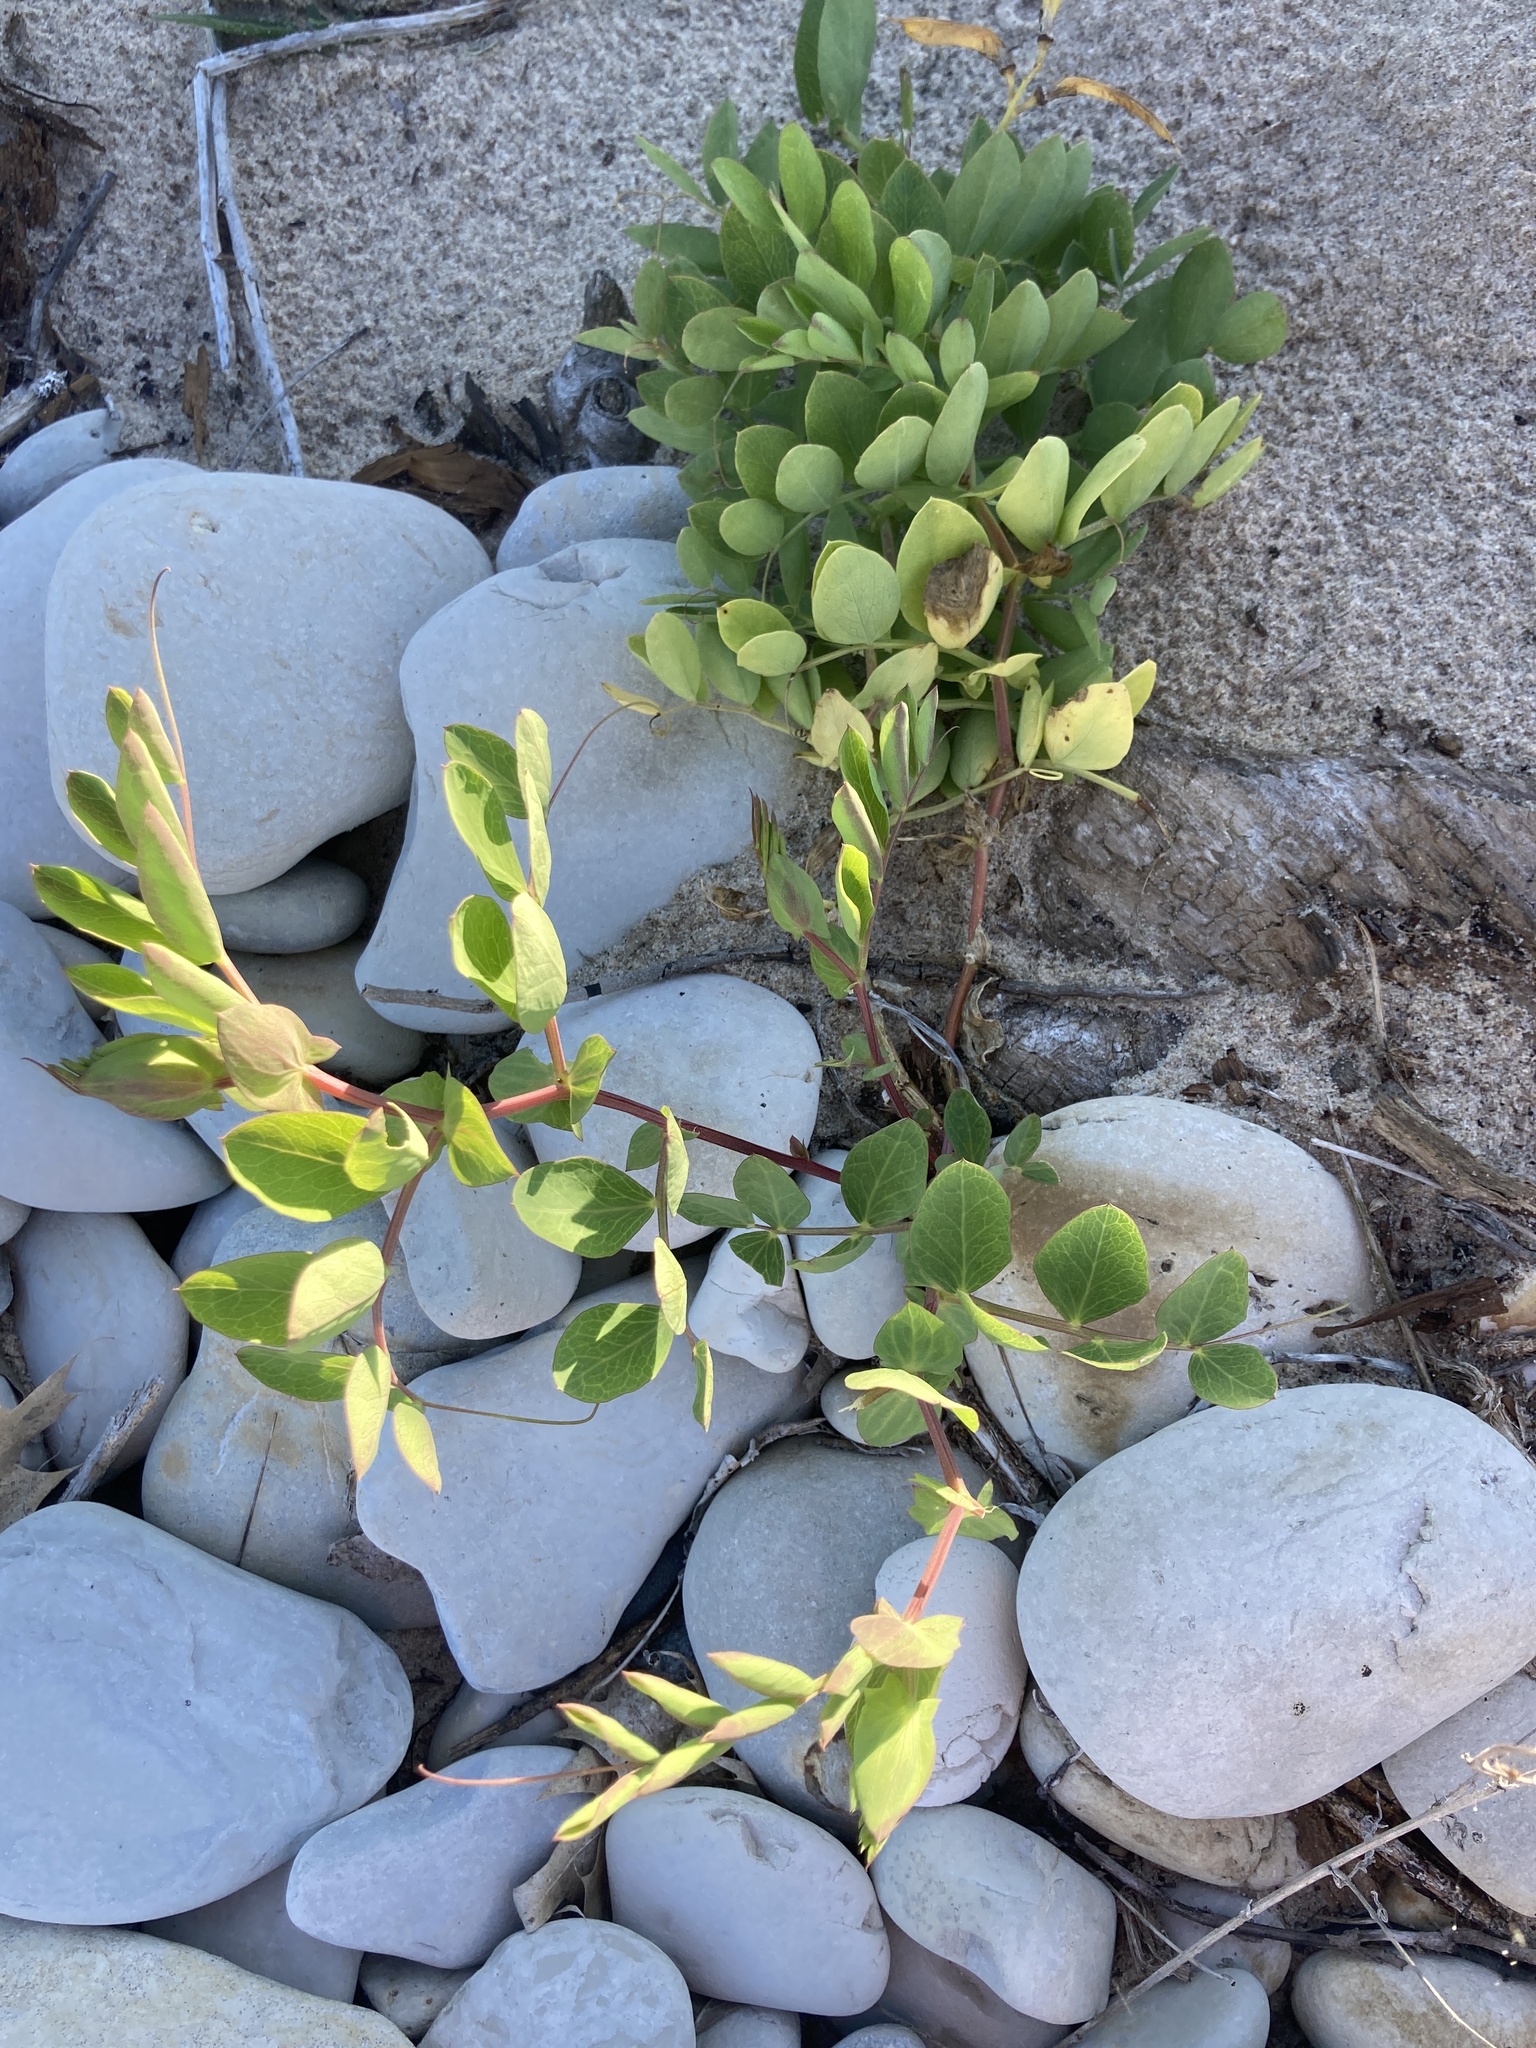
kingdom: Plantae
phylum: Tracheophyta
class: Magnoliopsida
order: Fabales
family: Fabaceae
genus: Lathyrus
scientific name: Lathyrus japonicus
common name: Sea pea
